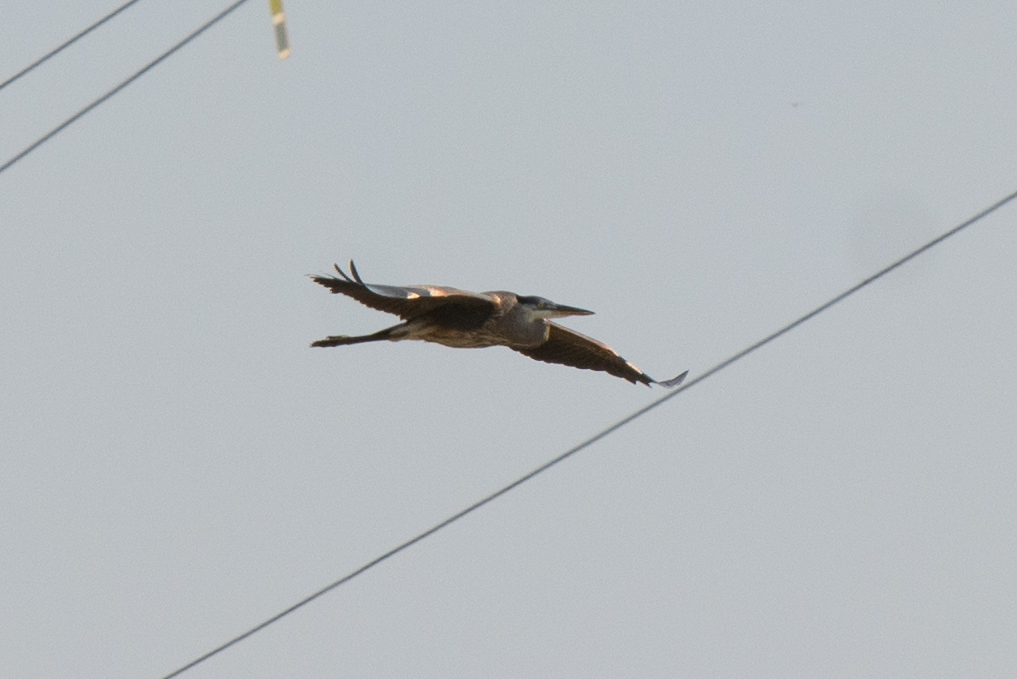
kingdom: Animalia
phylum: Chordata
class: Aves
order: Pelecaniformes
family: Ardeidae
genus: Ardea
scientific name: Ardea herodias
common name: Great blue heron
